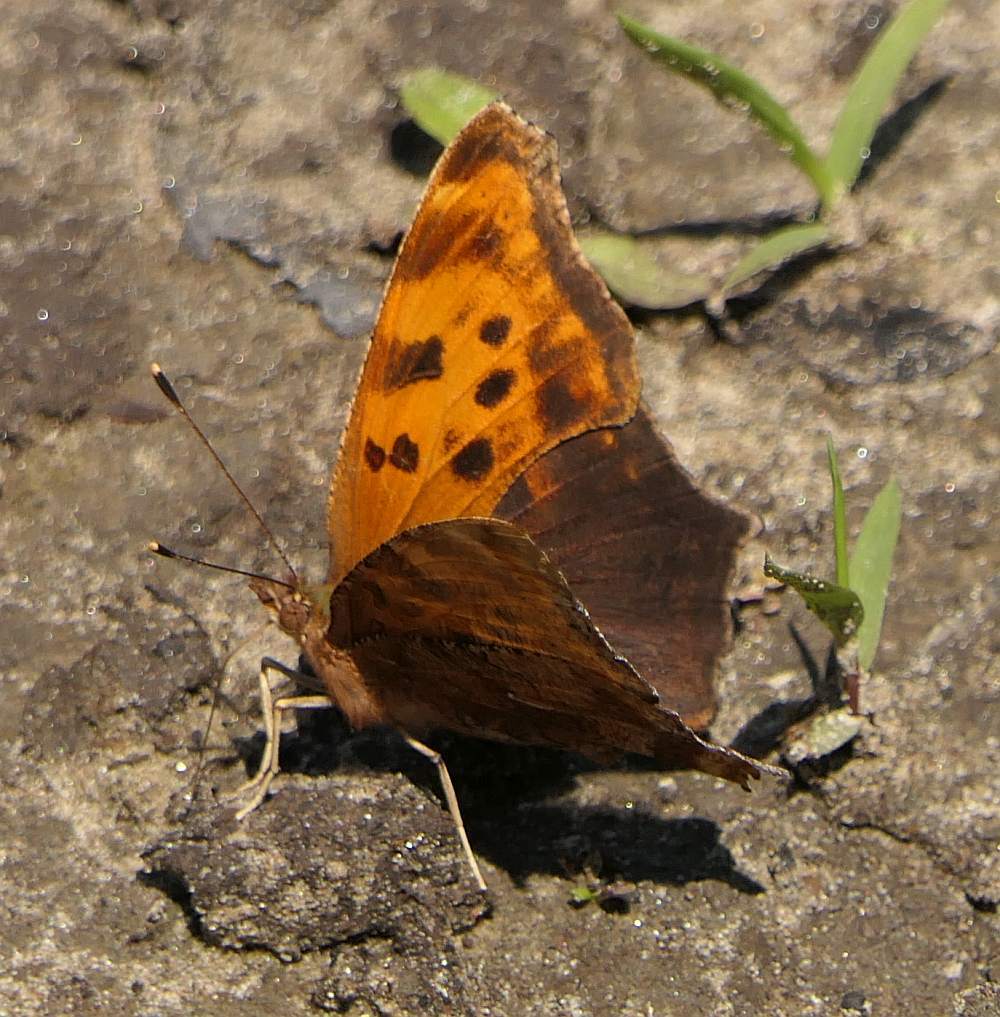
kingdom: Animalia
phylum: Arthropoda
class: Insecta
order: Lepidoptera
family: Nymphalidae
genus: Polygonia
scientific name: Polygonia comma
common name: Eastern comma
